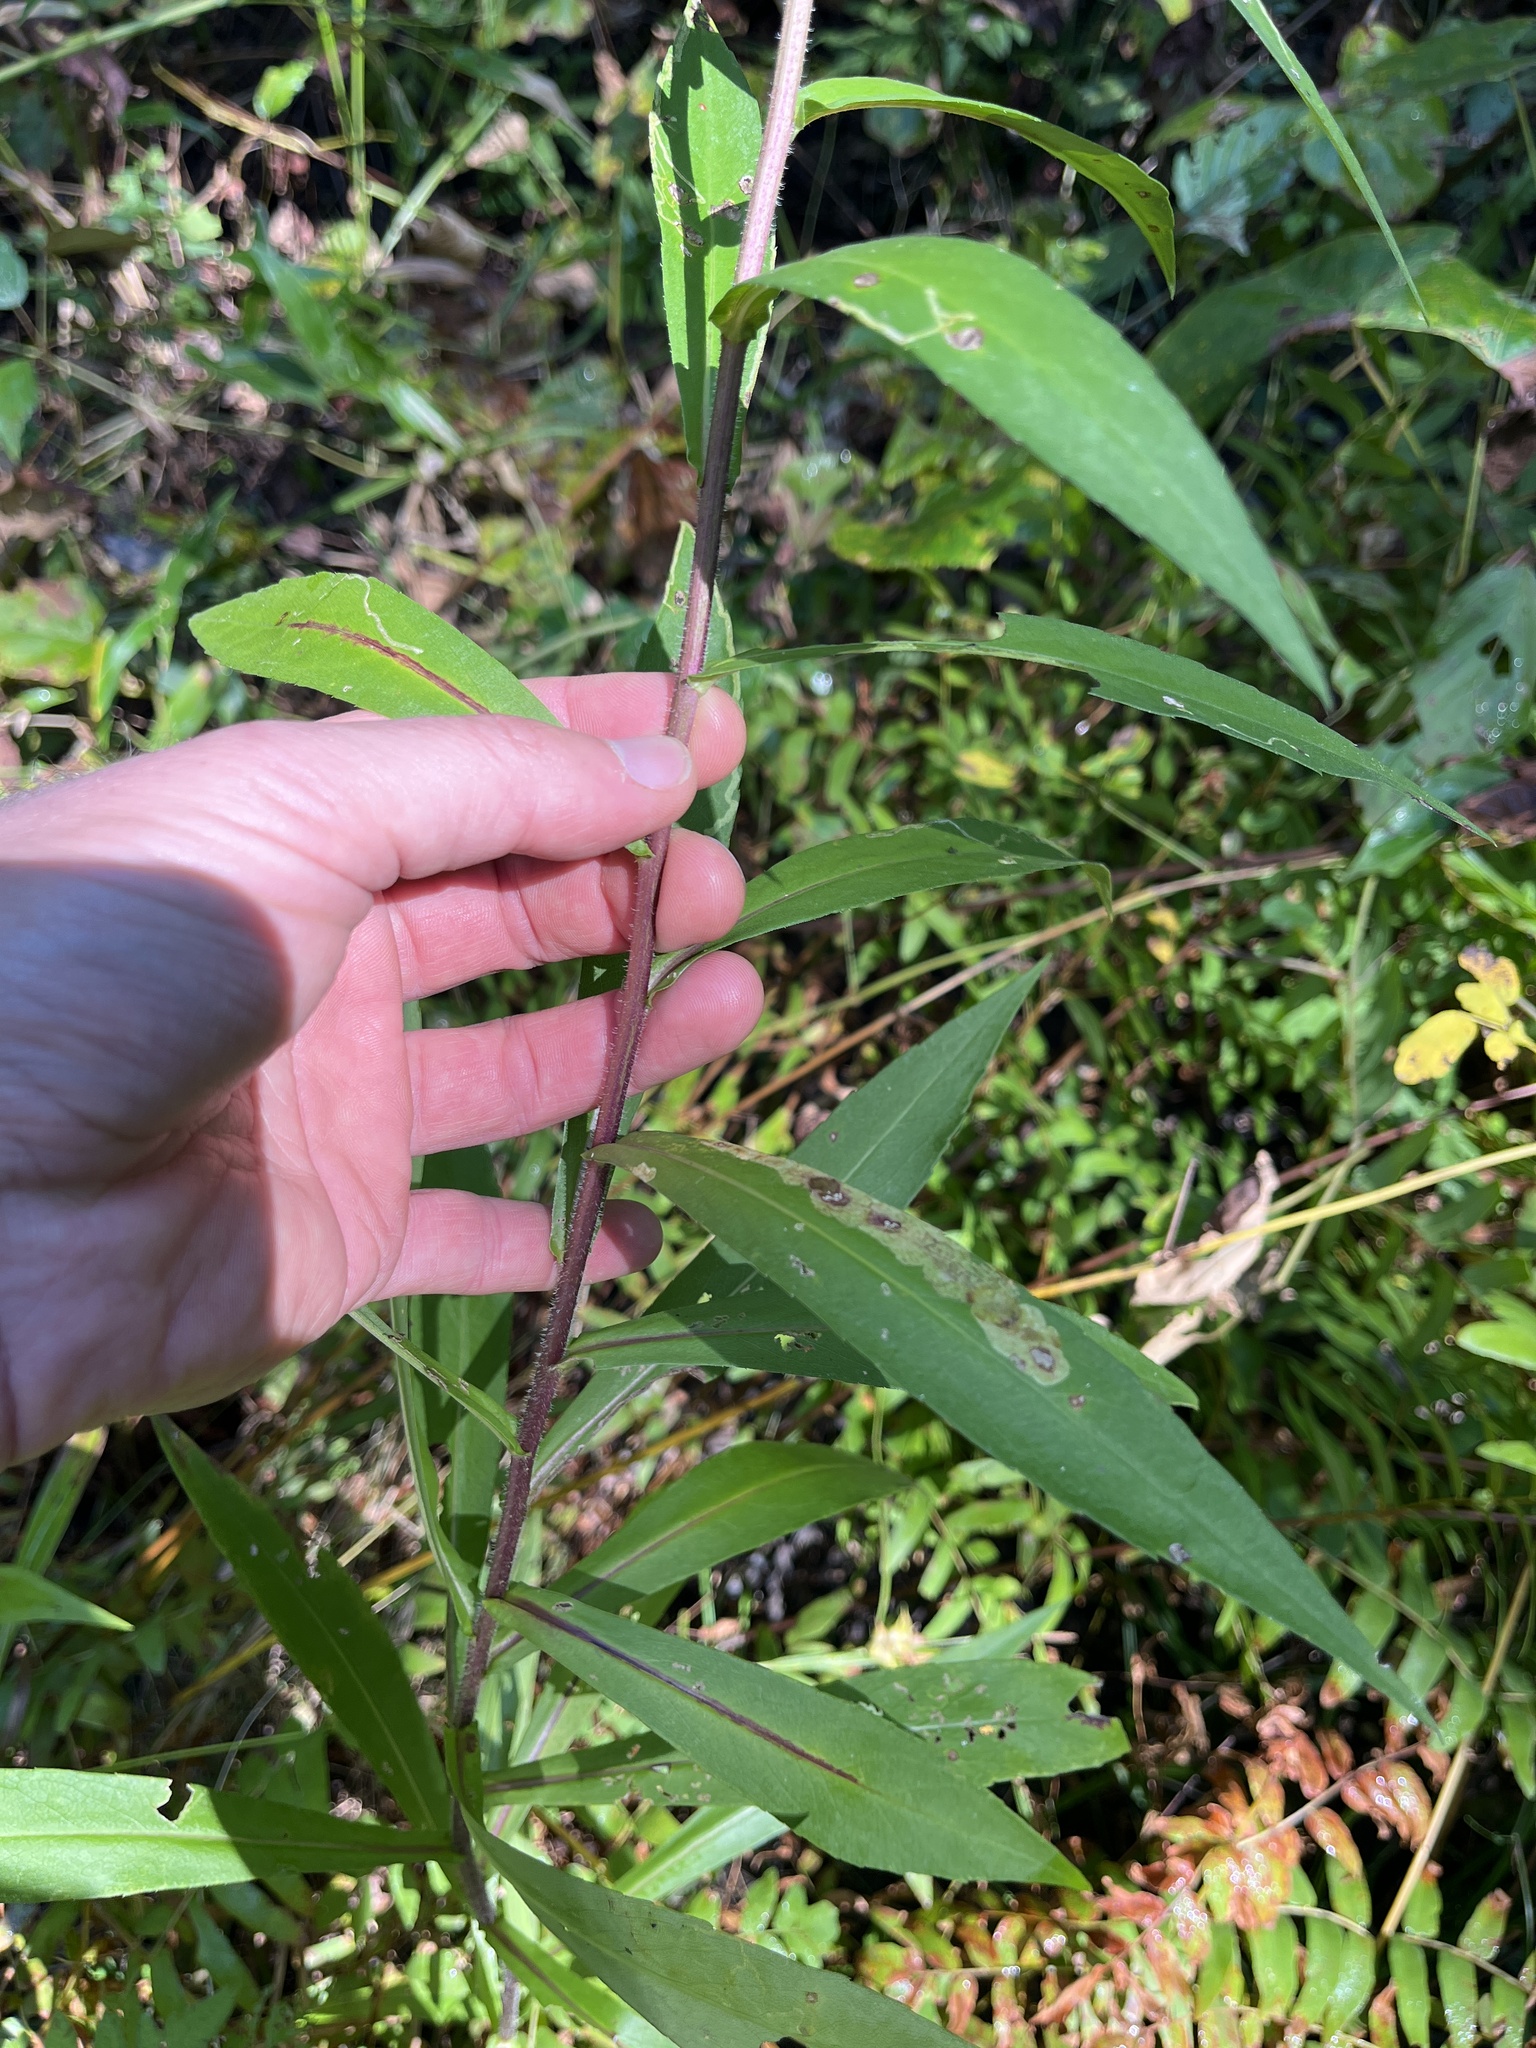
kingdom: Plantae
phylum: Tracheophyta
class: Magnoliopsida
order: Asterales
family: Asteraceae
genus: Symphyotrichum
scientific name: Symphyotrichum puniceum
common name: Bog aster
